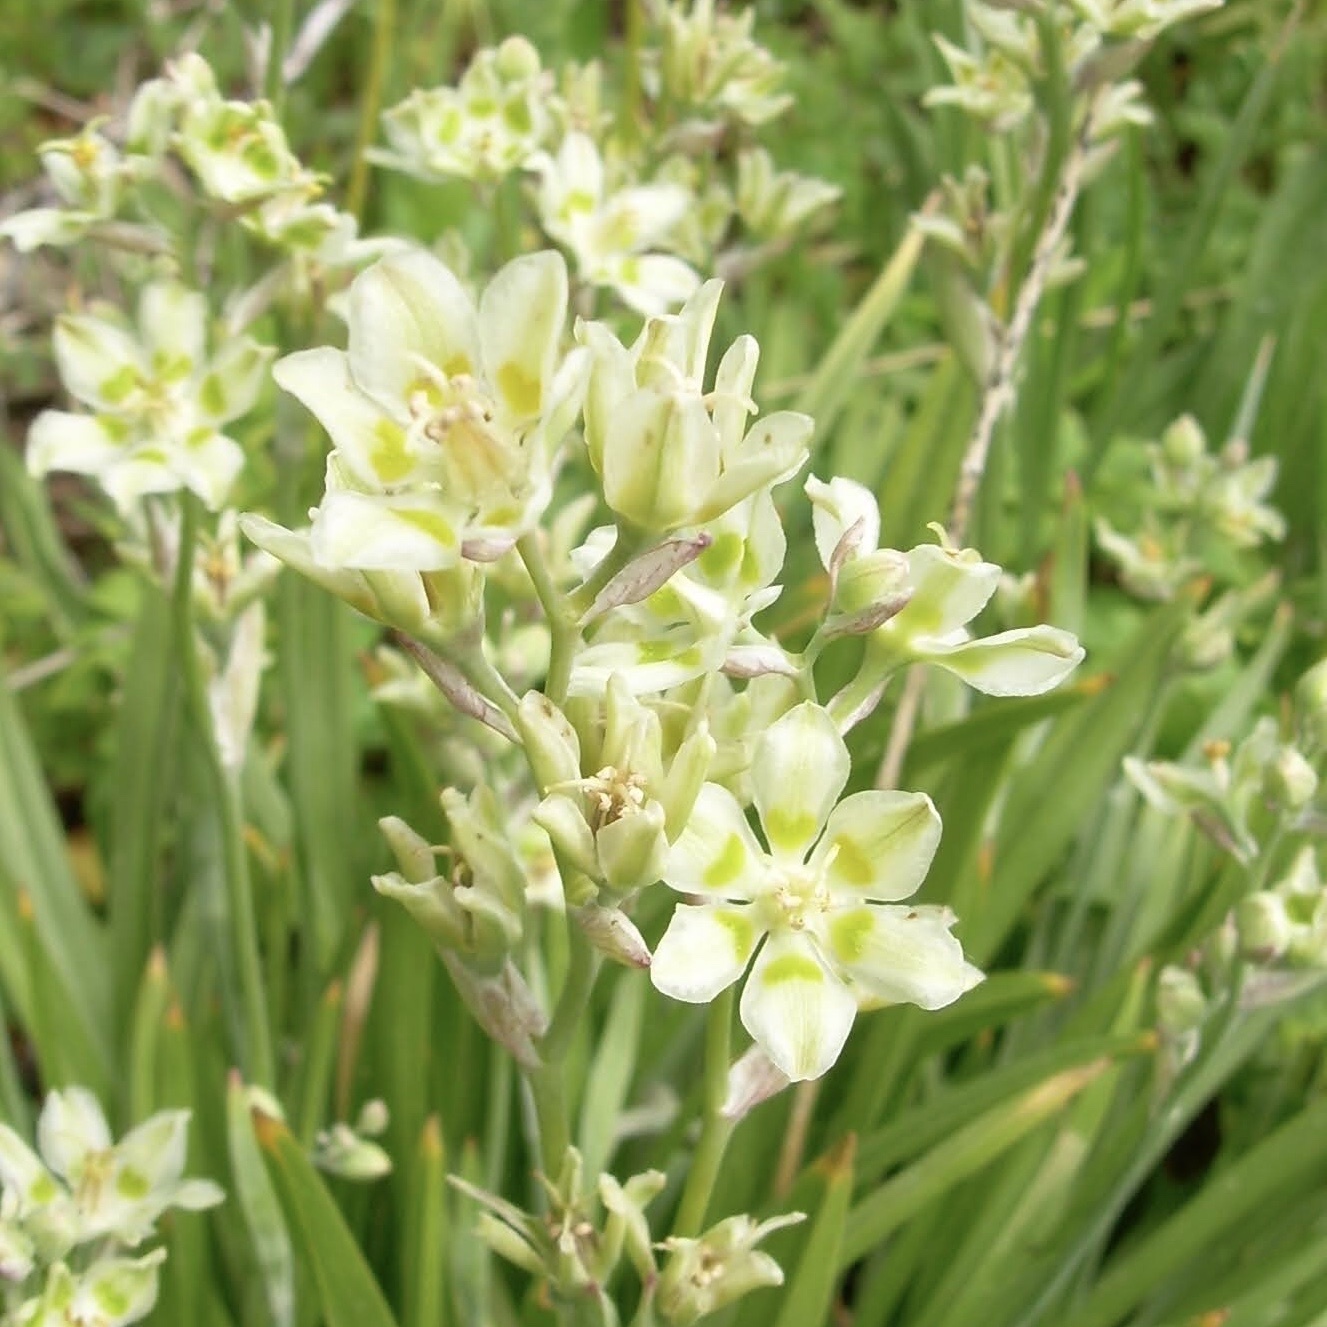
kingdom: Plantae
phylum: Tracheophyta
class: Liliopsida
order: Liliales
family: Melanthiaceae
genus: Anticlea
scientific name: Anticlea elegans
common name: Mountain death camas
